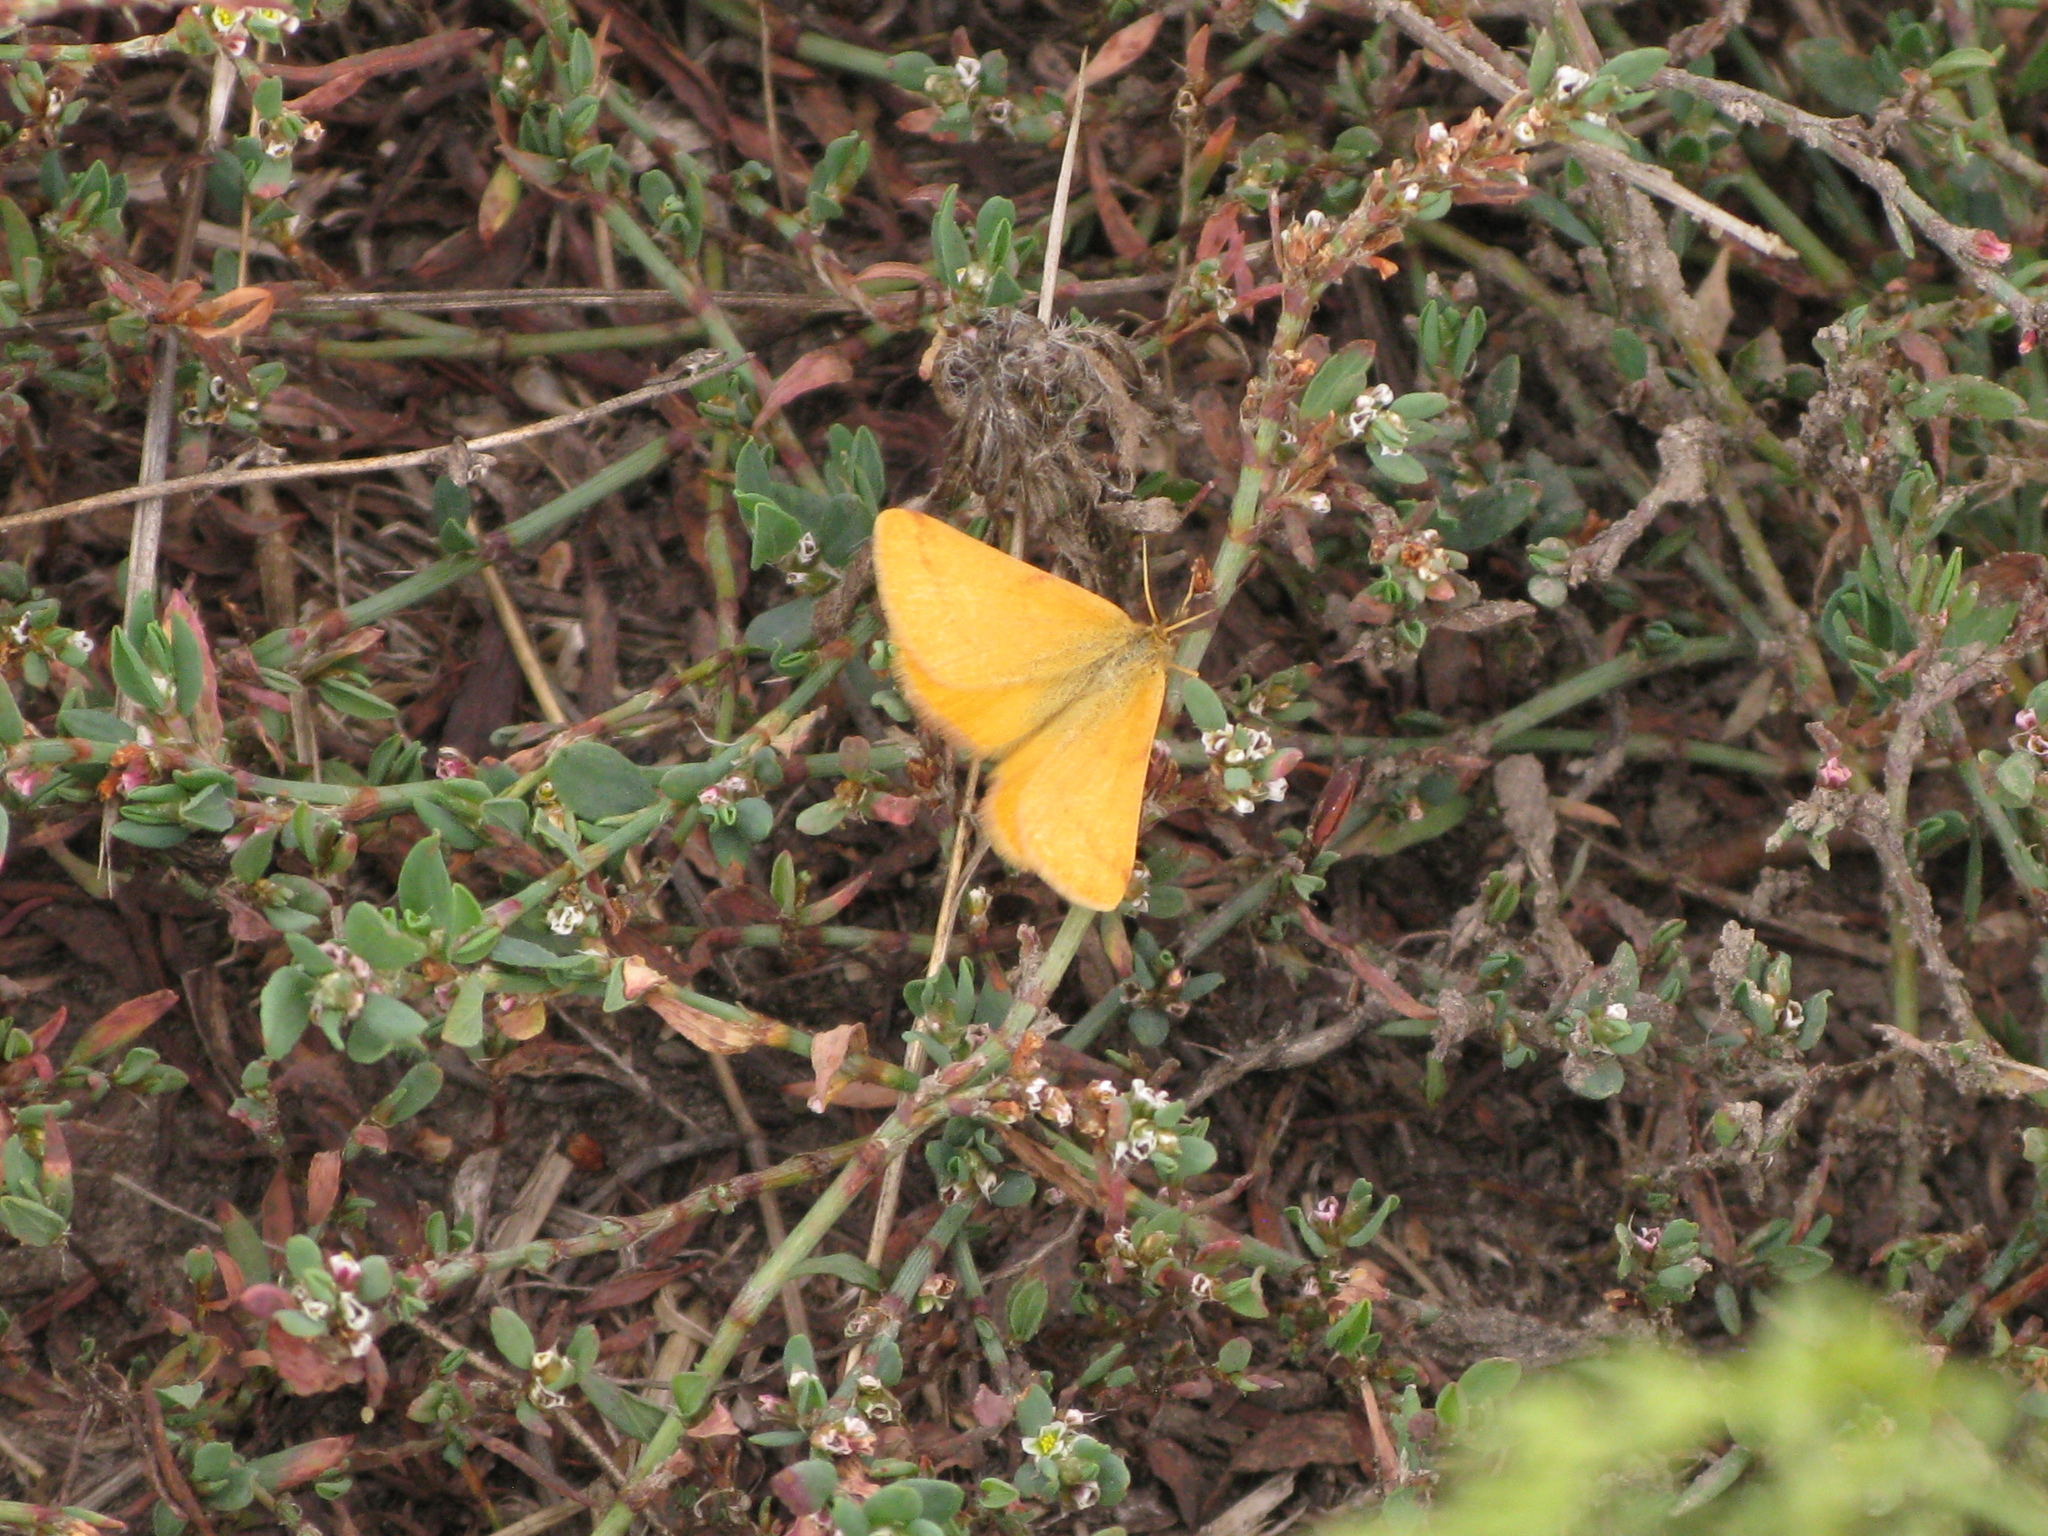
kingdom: Animalia
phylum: Arthropoda
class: Insecta
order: Lepidoptera
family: Geometridae
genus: Lythria
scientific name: Lythria purpuraria
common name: Purple-barred yellow
